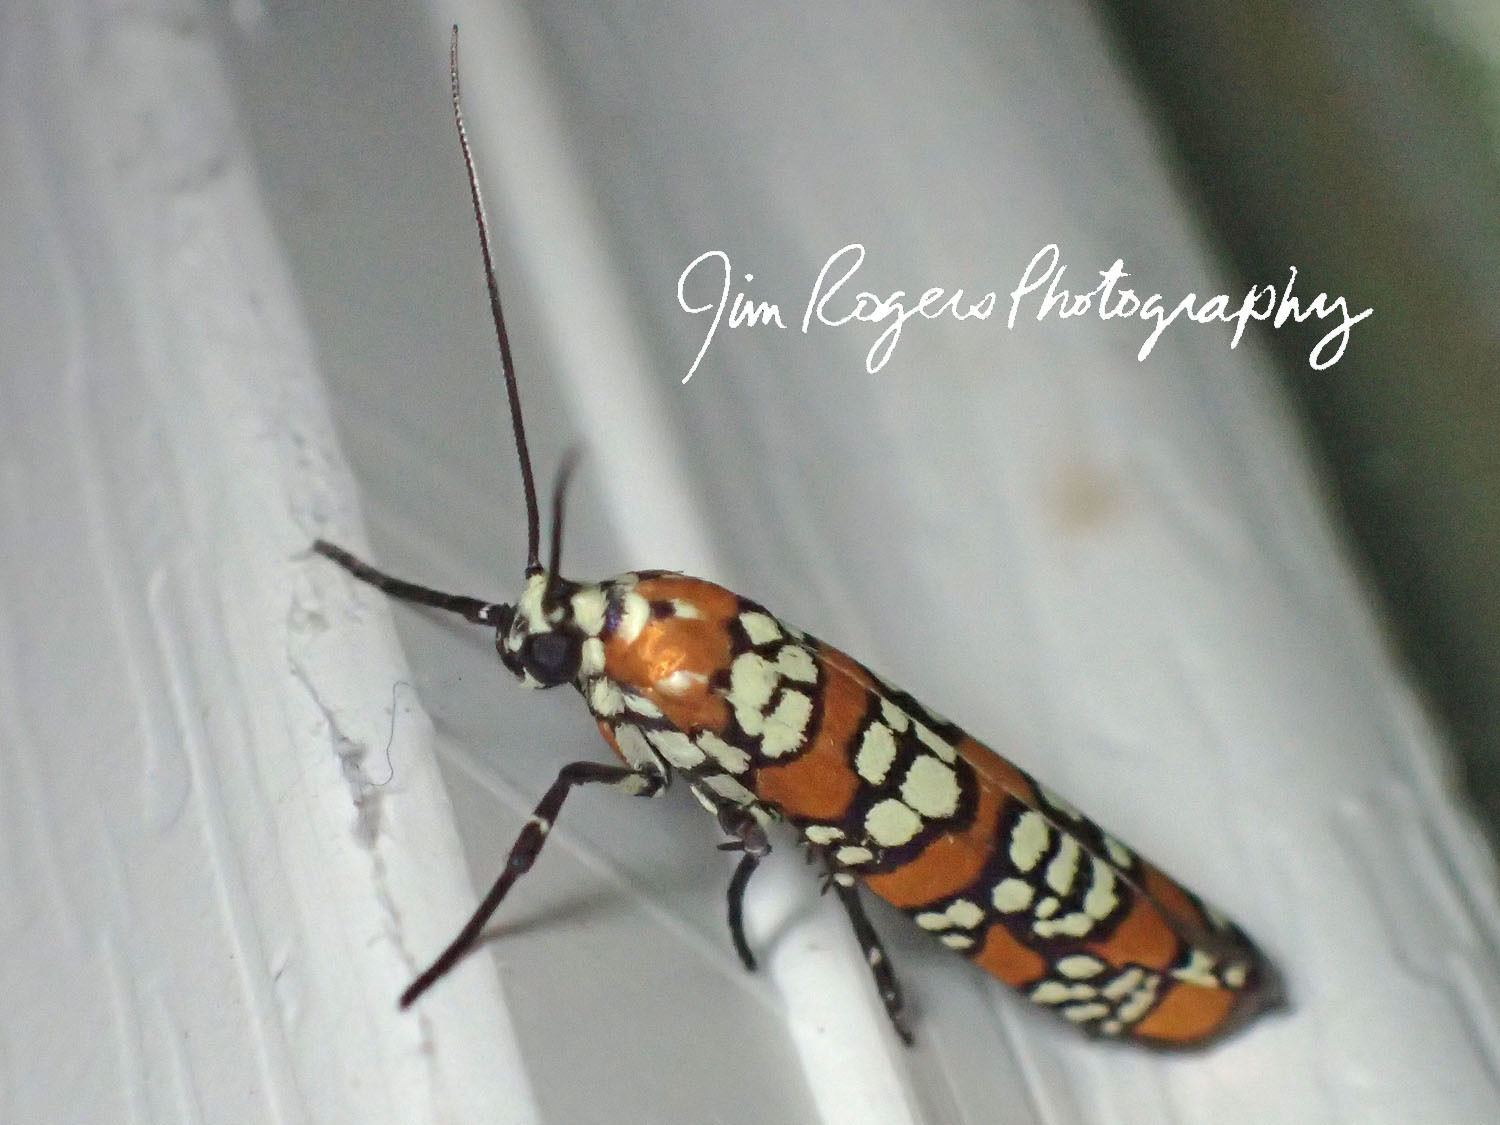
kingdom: Animalia
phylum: Arthropoda
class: Insecta
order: Lepidoptera
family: Attevidae
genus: Atteva
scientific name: Atteva punctella
